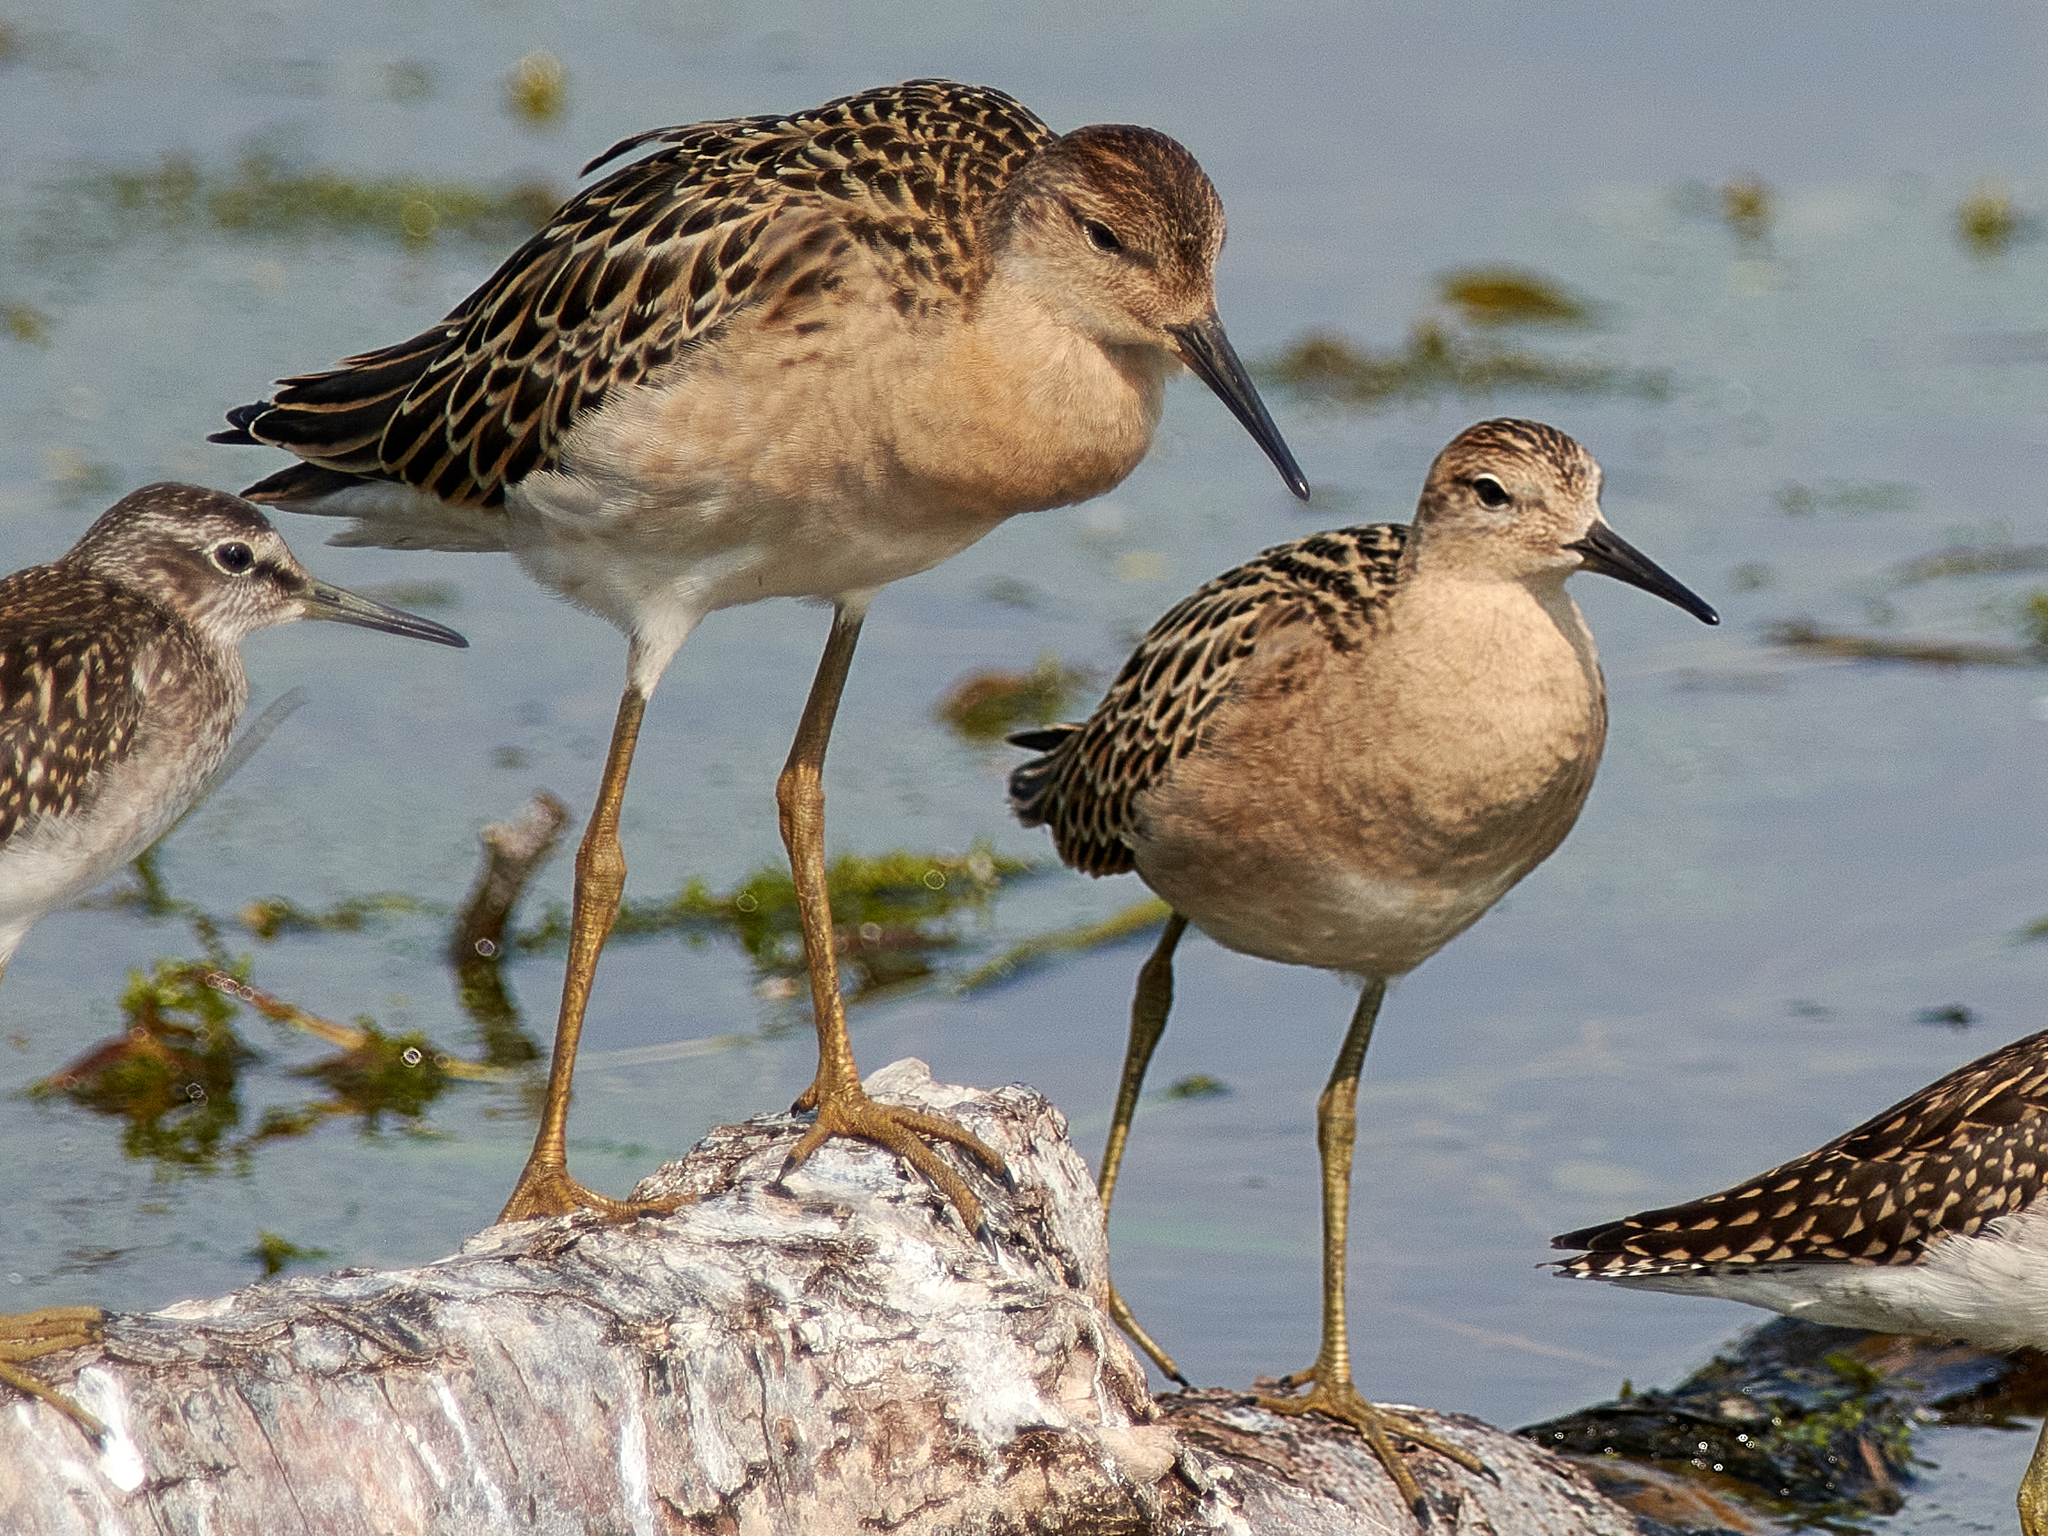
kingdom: Animalia
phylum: Chordata
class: Aves
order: Charadriiformes
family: Scolopacidae
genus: Calidris
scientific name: Calidris pugnax
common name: Ruff
